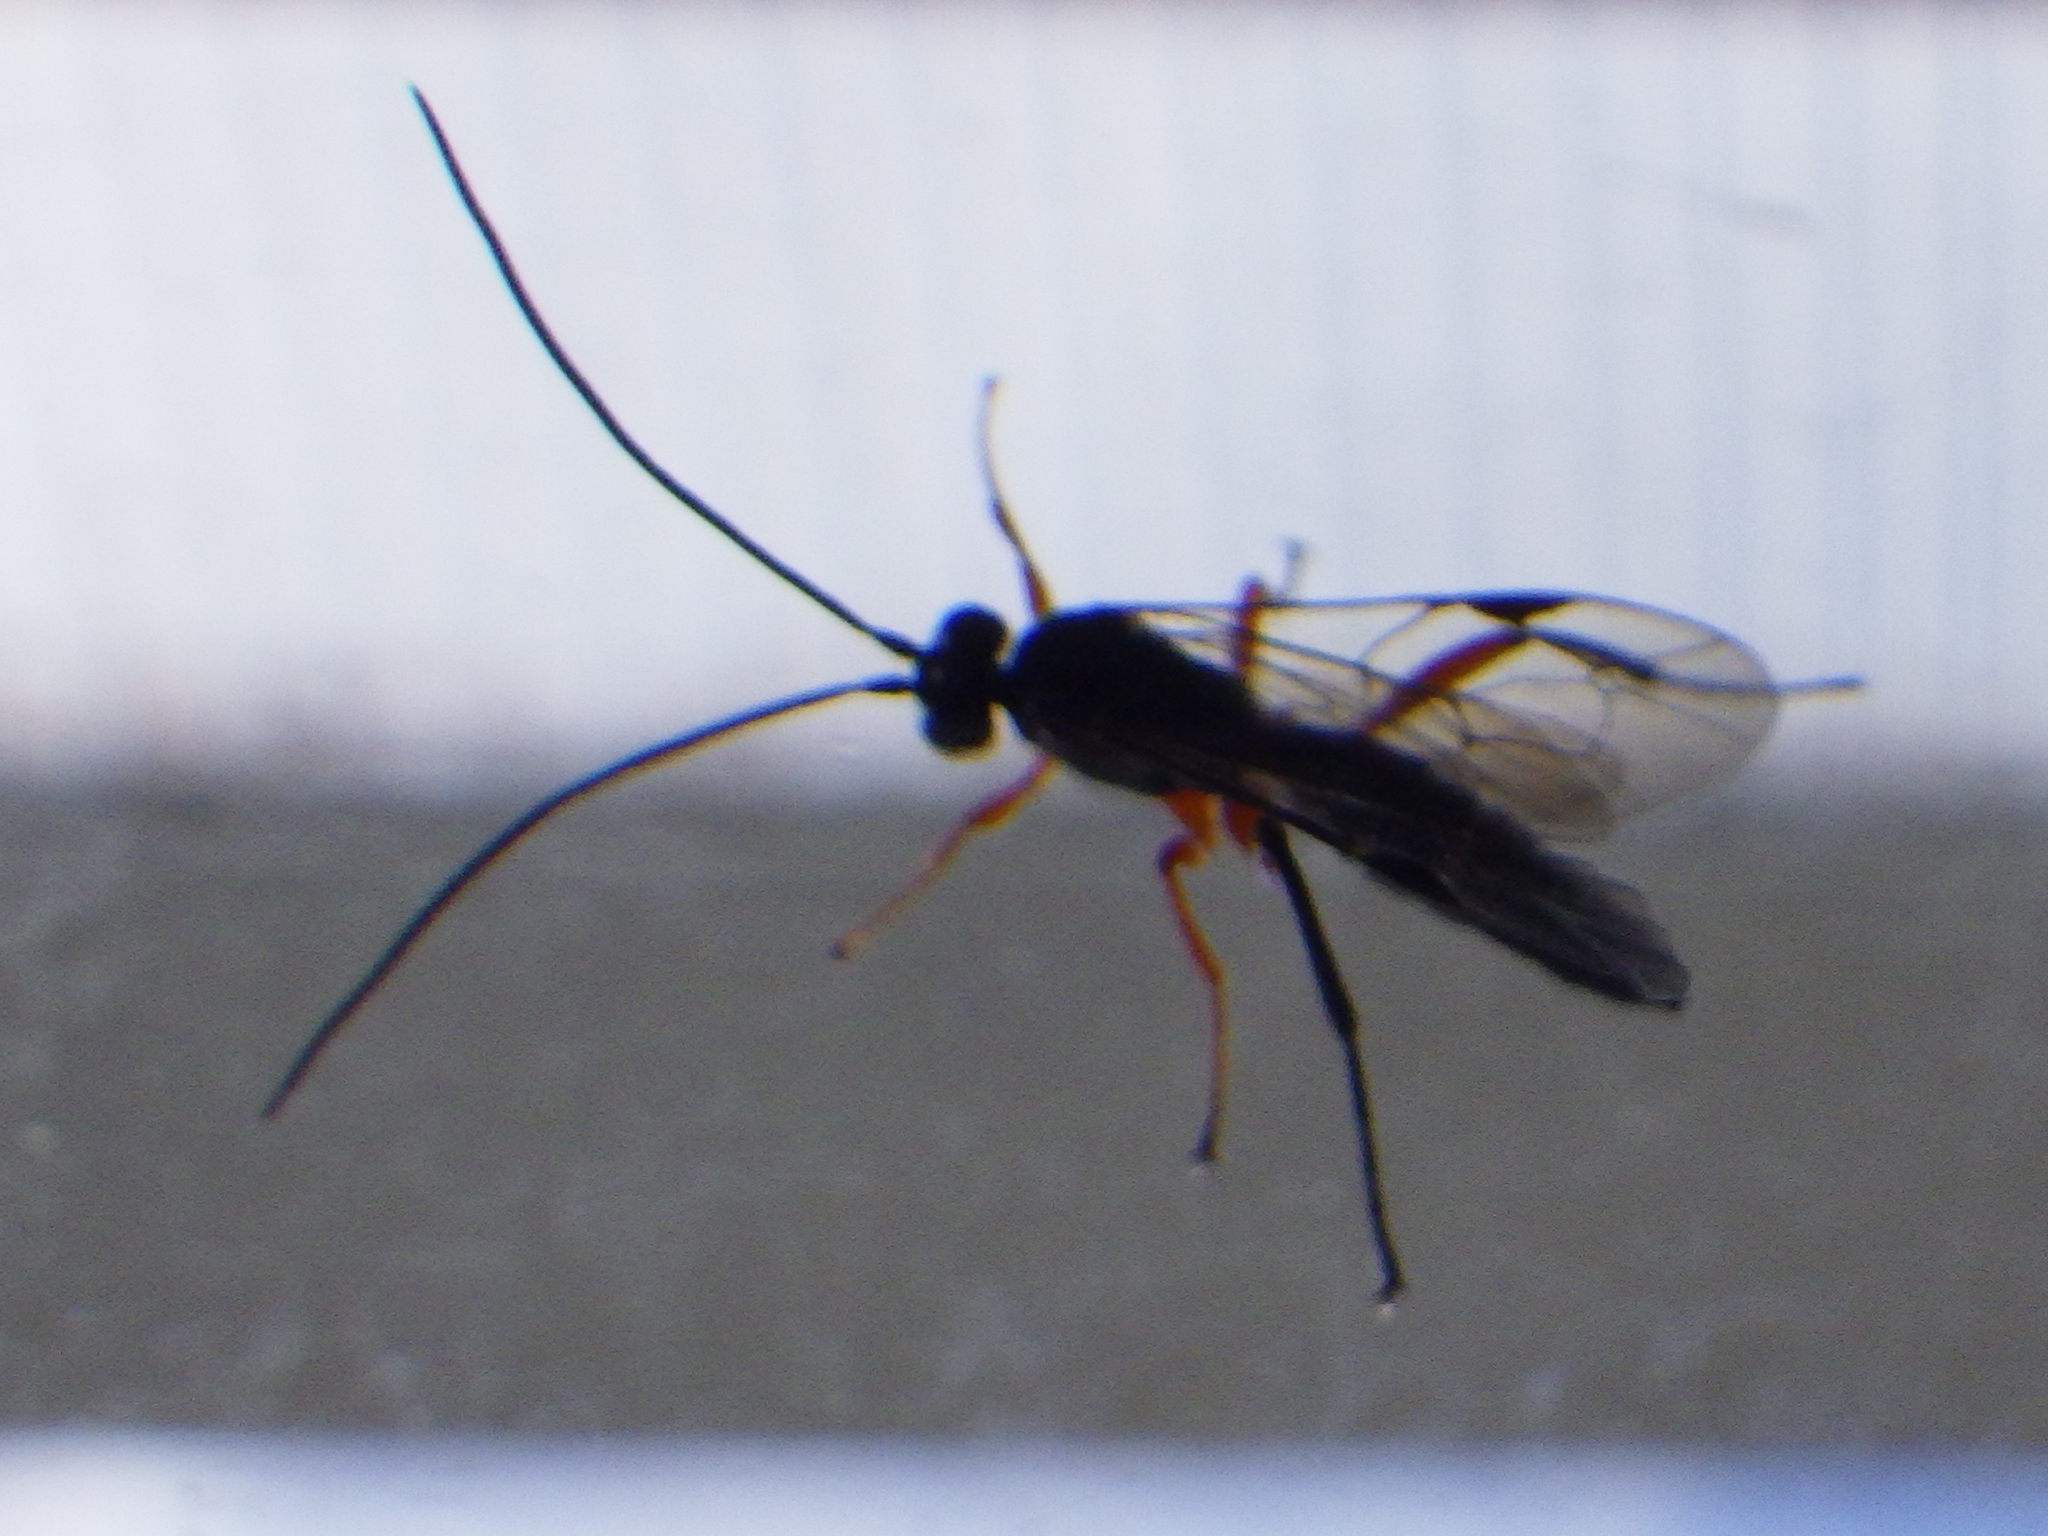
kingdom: Animalia
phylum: Arthropoda
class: Insecta
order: Hymenoptera
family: Ichneumonidae
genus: Pimpla
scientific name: Pimpla pedalis
